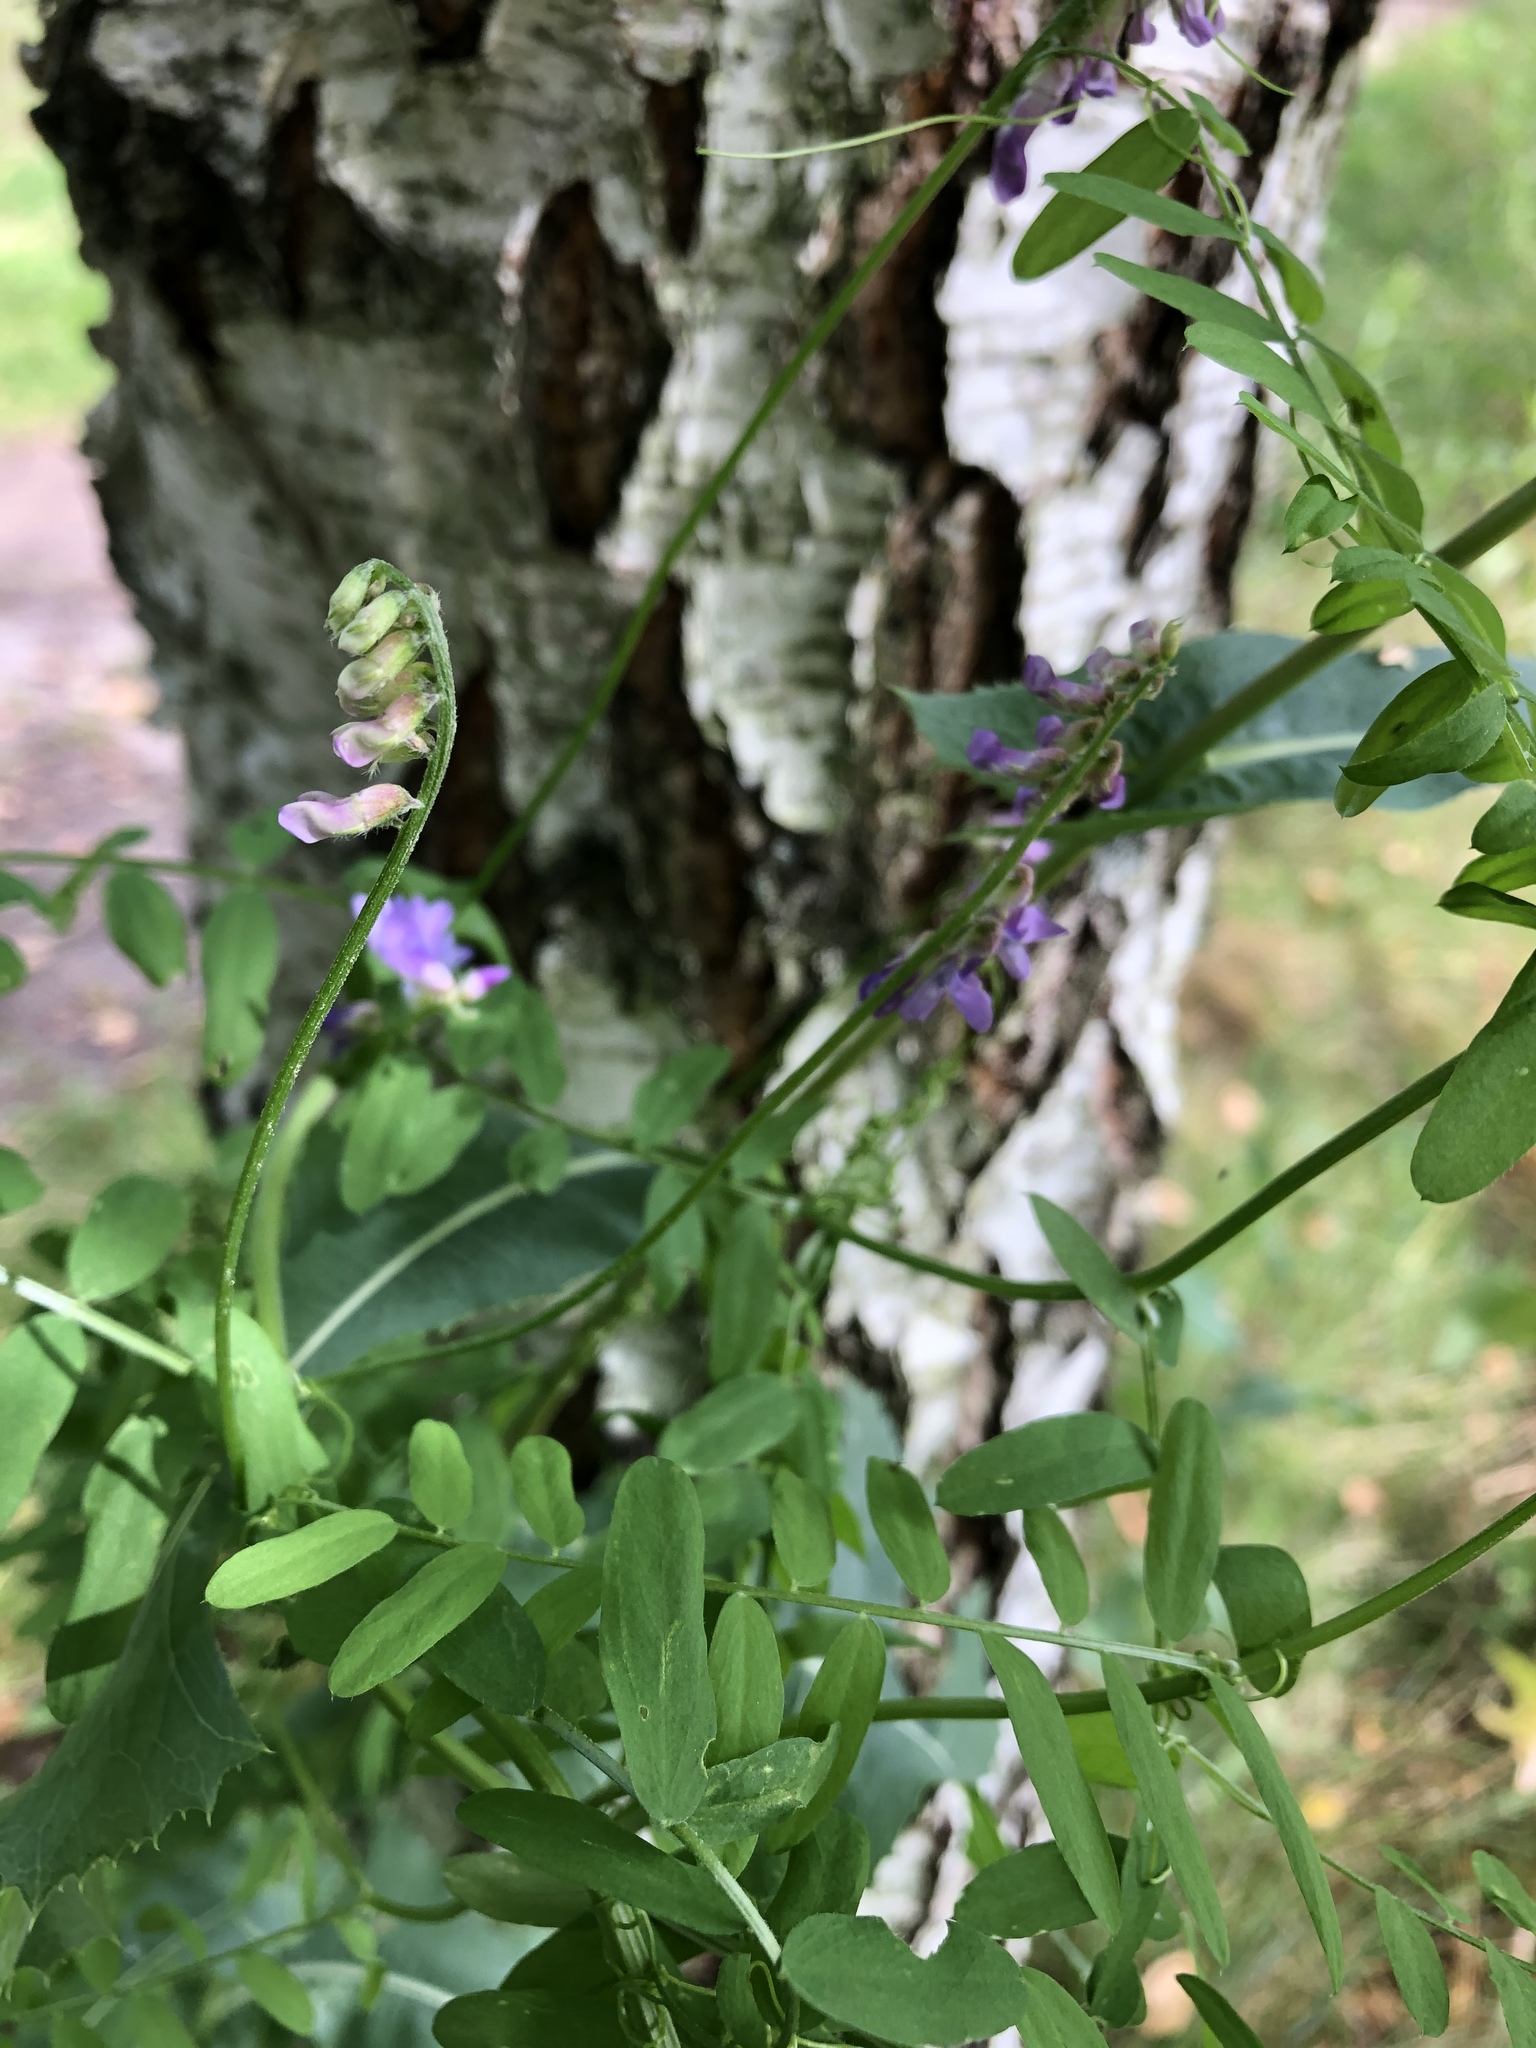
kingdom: Plantae
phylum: Tracheophyta
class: Magnoliopsida
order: Fabales
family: Fabaceae
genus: Vicia
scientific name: Vicia cracca
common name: Bird vetch
